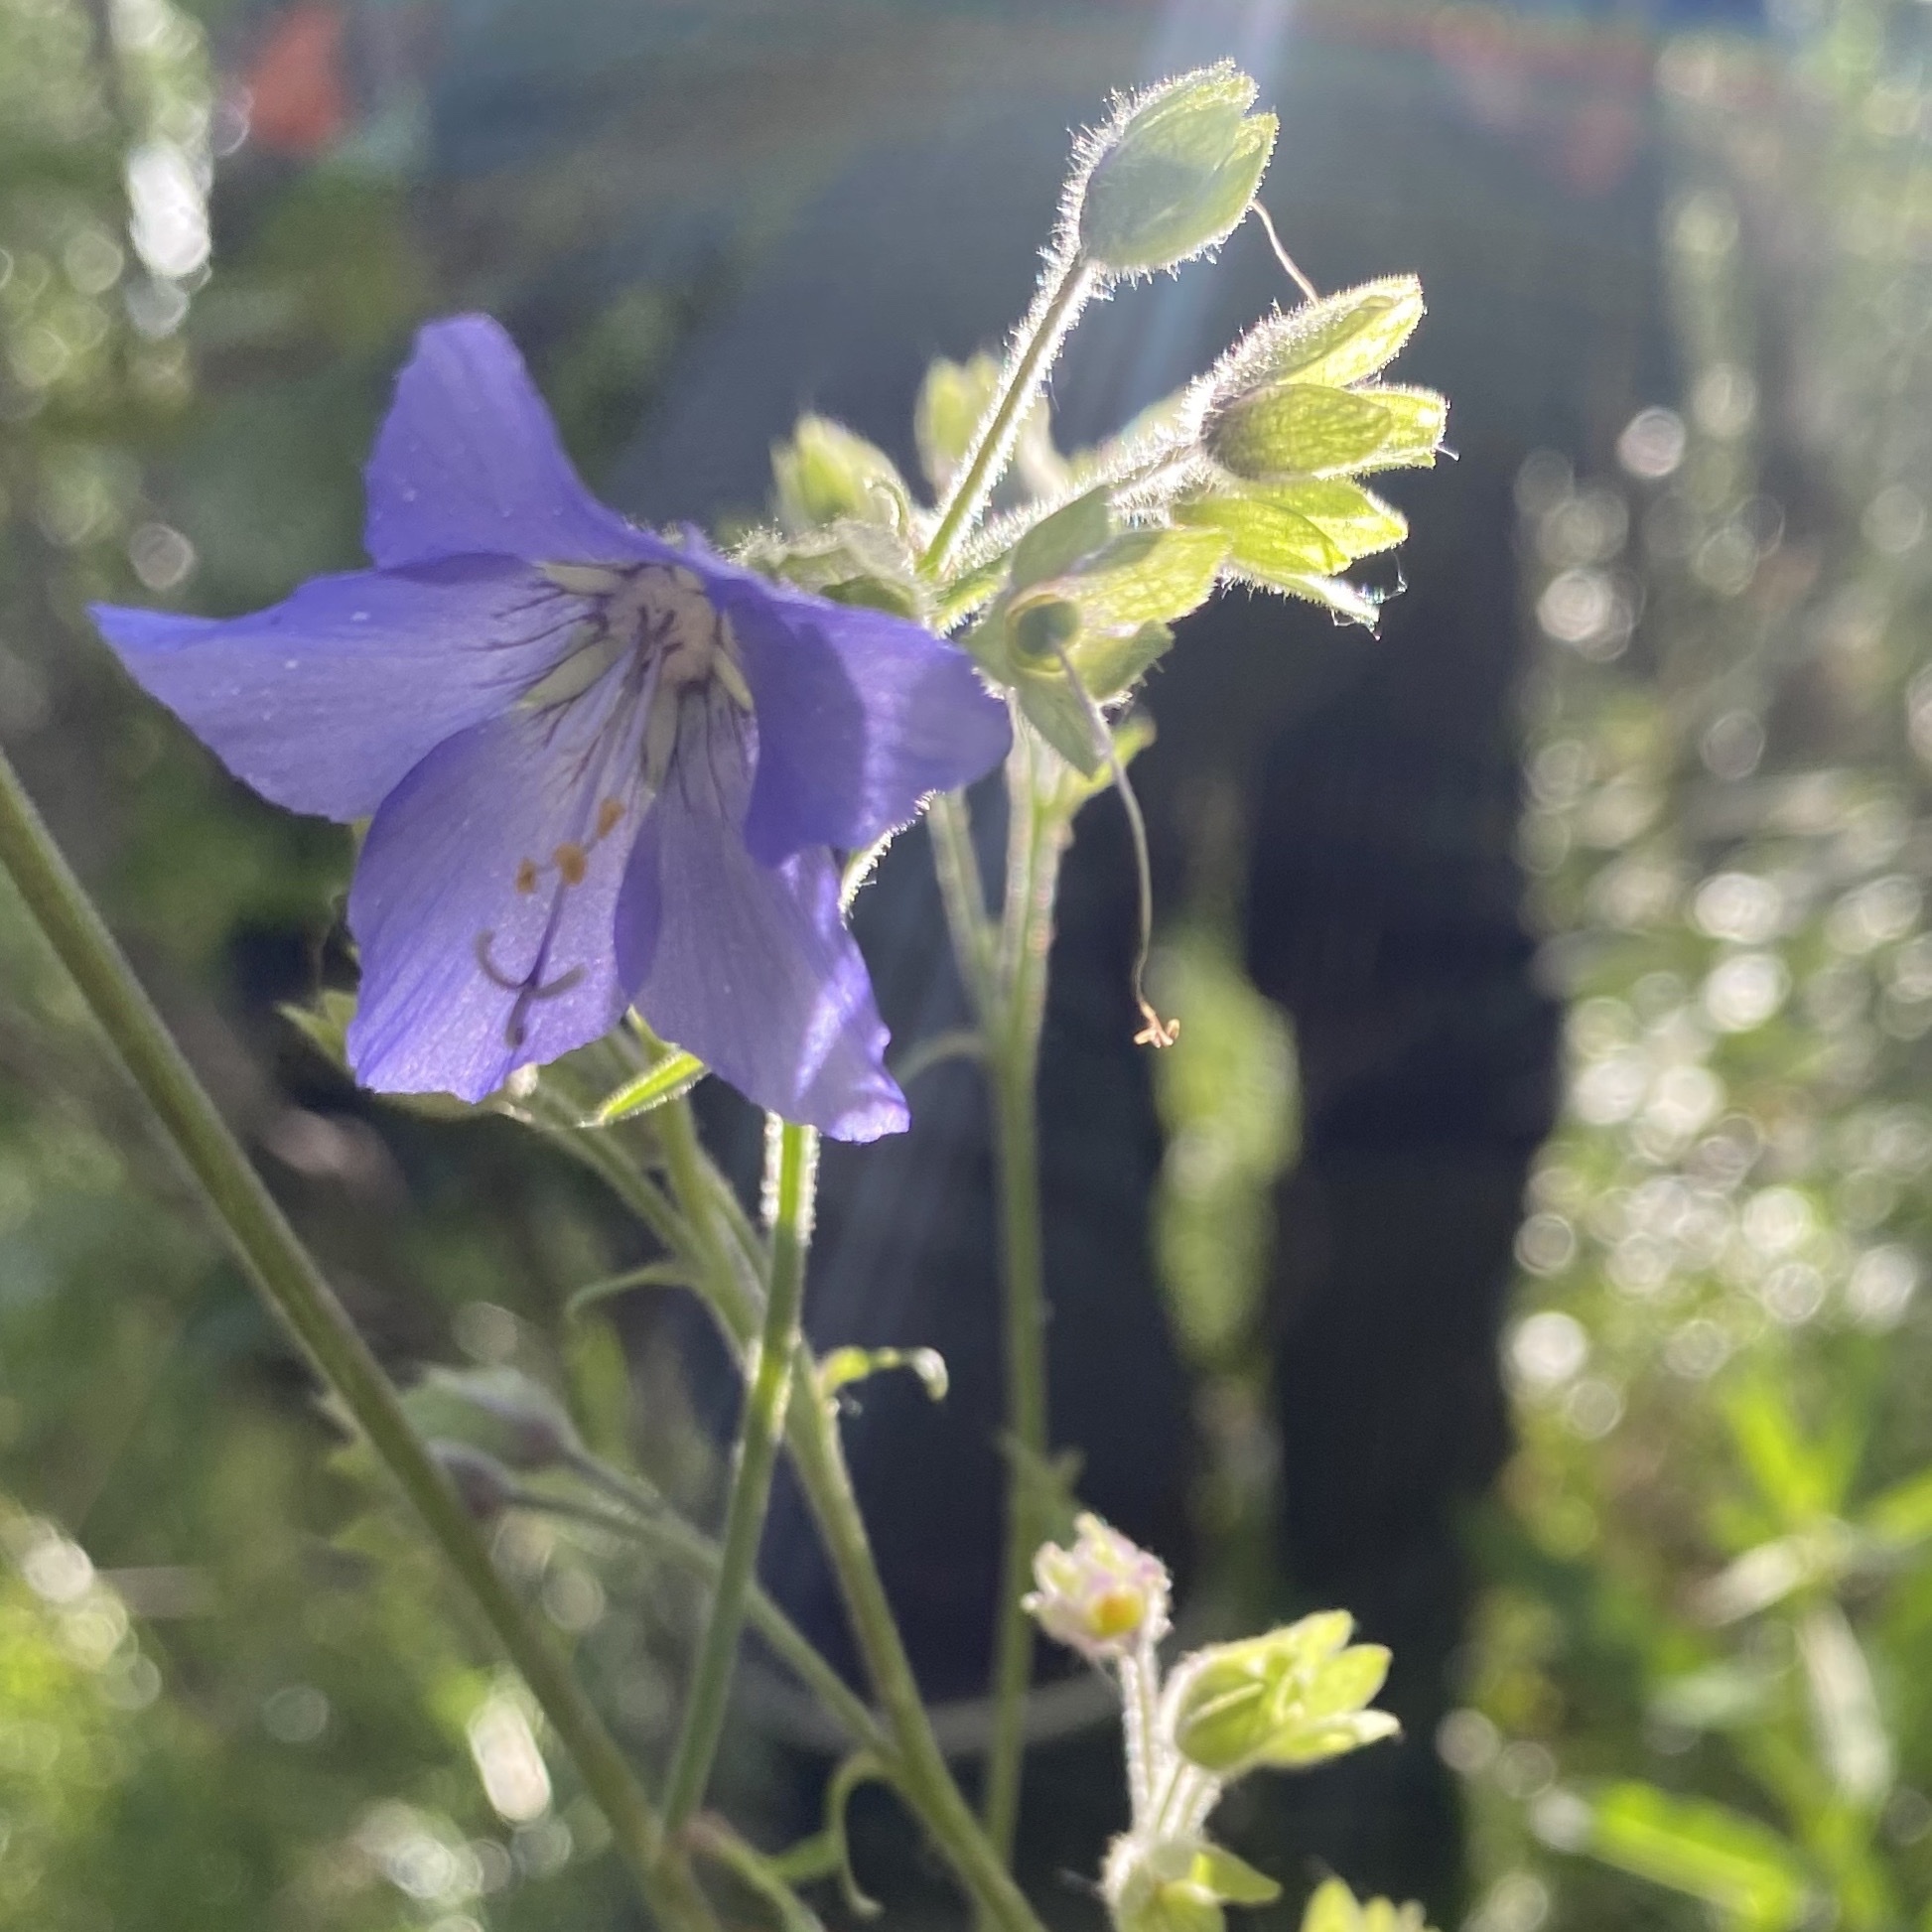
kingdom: Plantae
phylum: Tracheophyta
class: Magnoliopsida
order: Ericales
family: Polemoniaceae
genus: Polemonium
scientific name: Polemonium acutiflorum
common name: Tall jacob's-ladder
